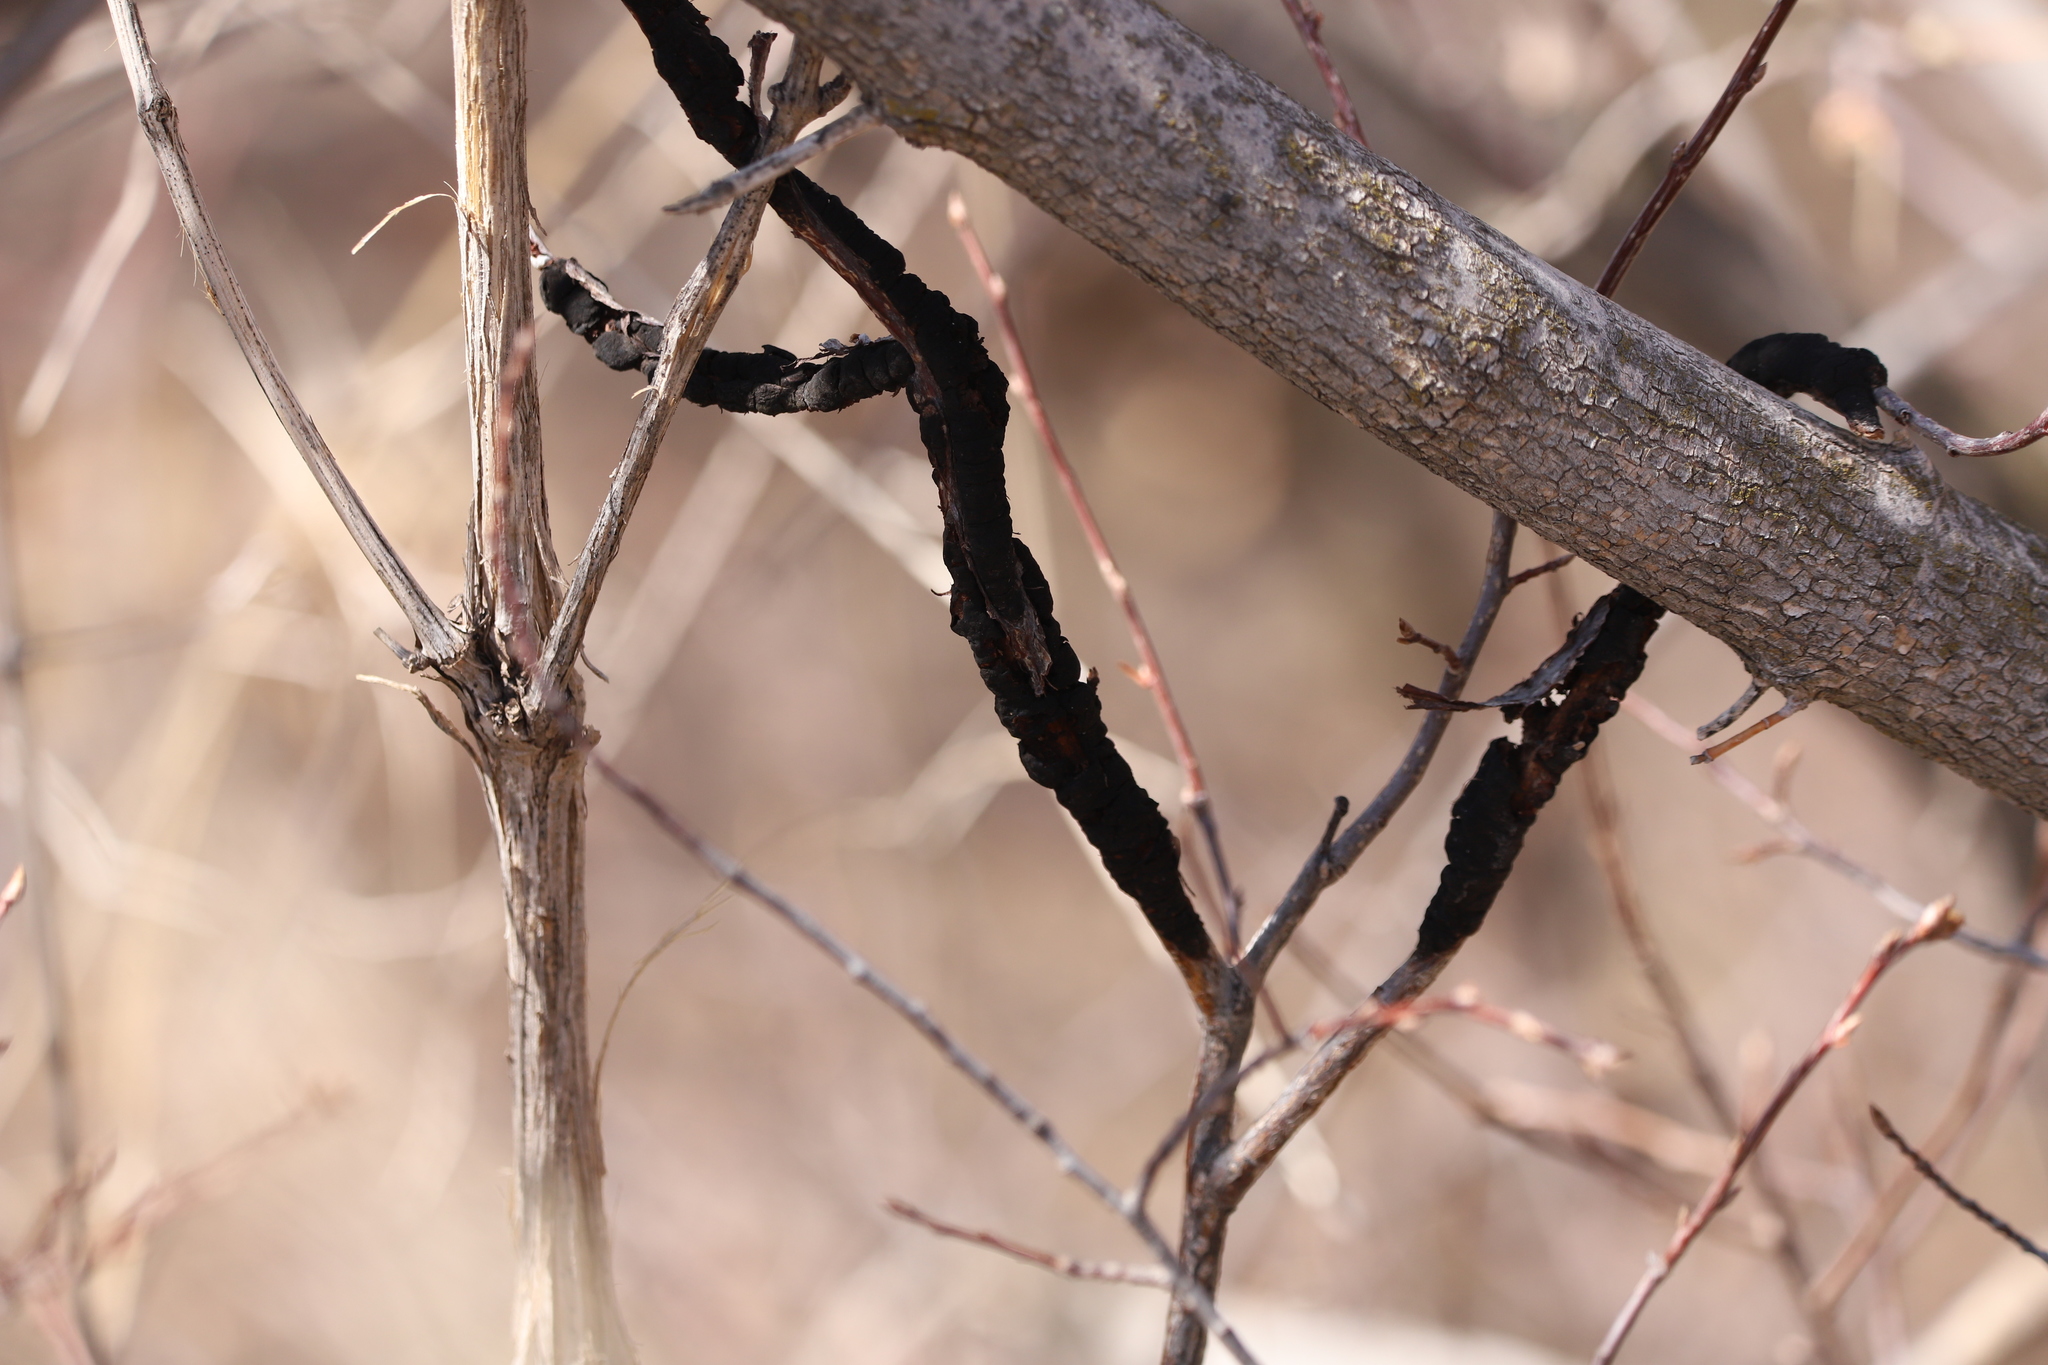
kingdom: Fungi
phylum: Ascomycota
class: Dothideomycetes
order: Venturiales
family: Venturiaceae
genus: Apiosporina
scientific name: Apiosporina morbosa
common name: Black knot
